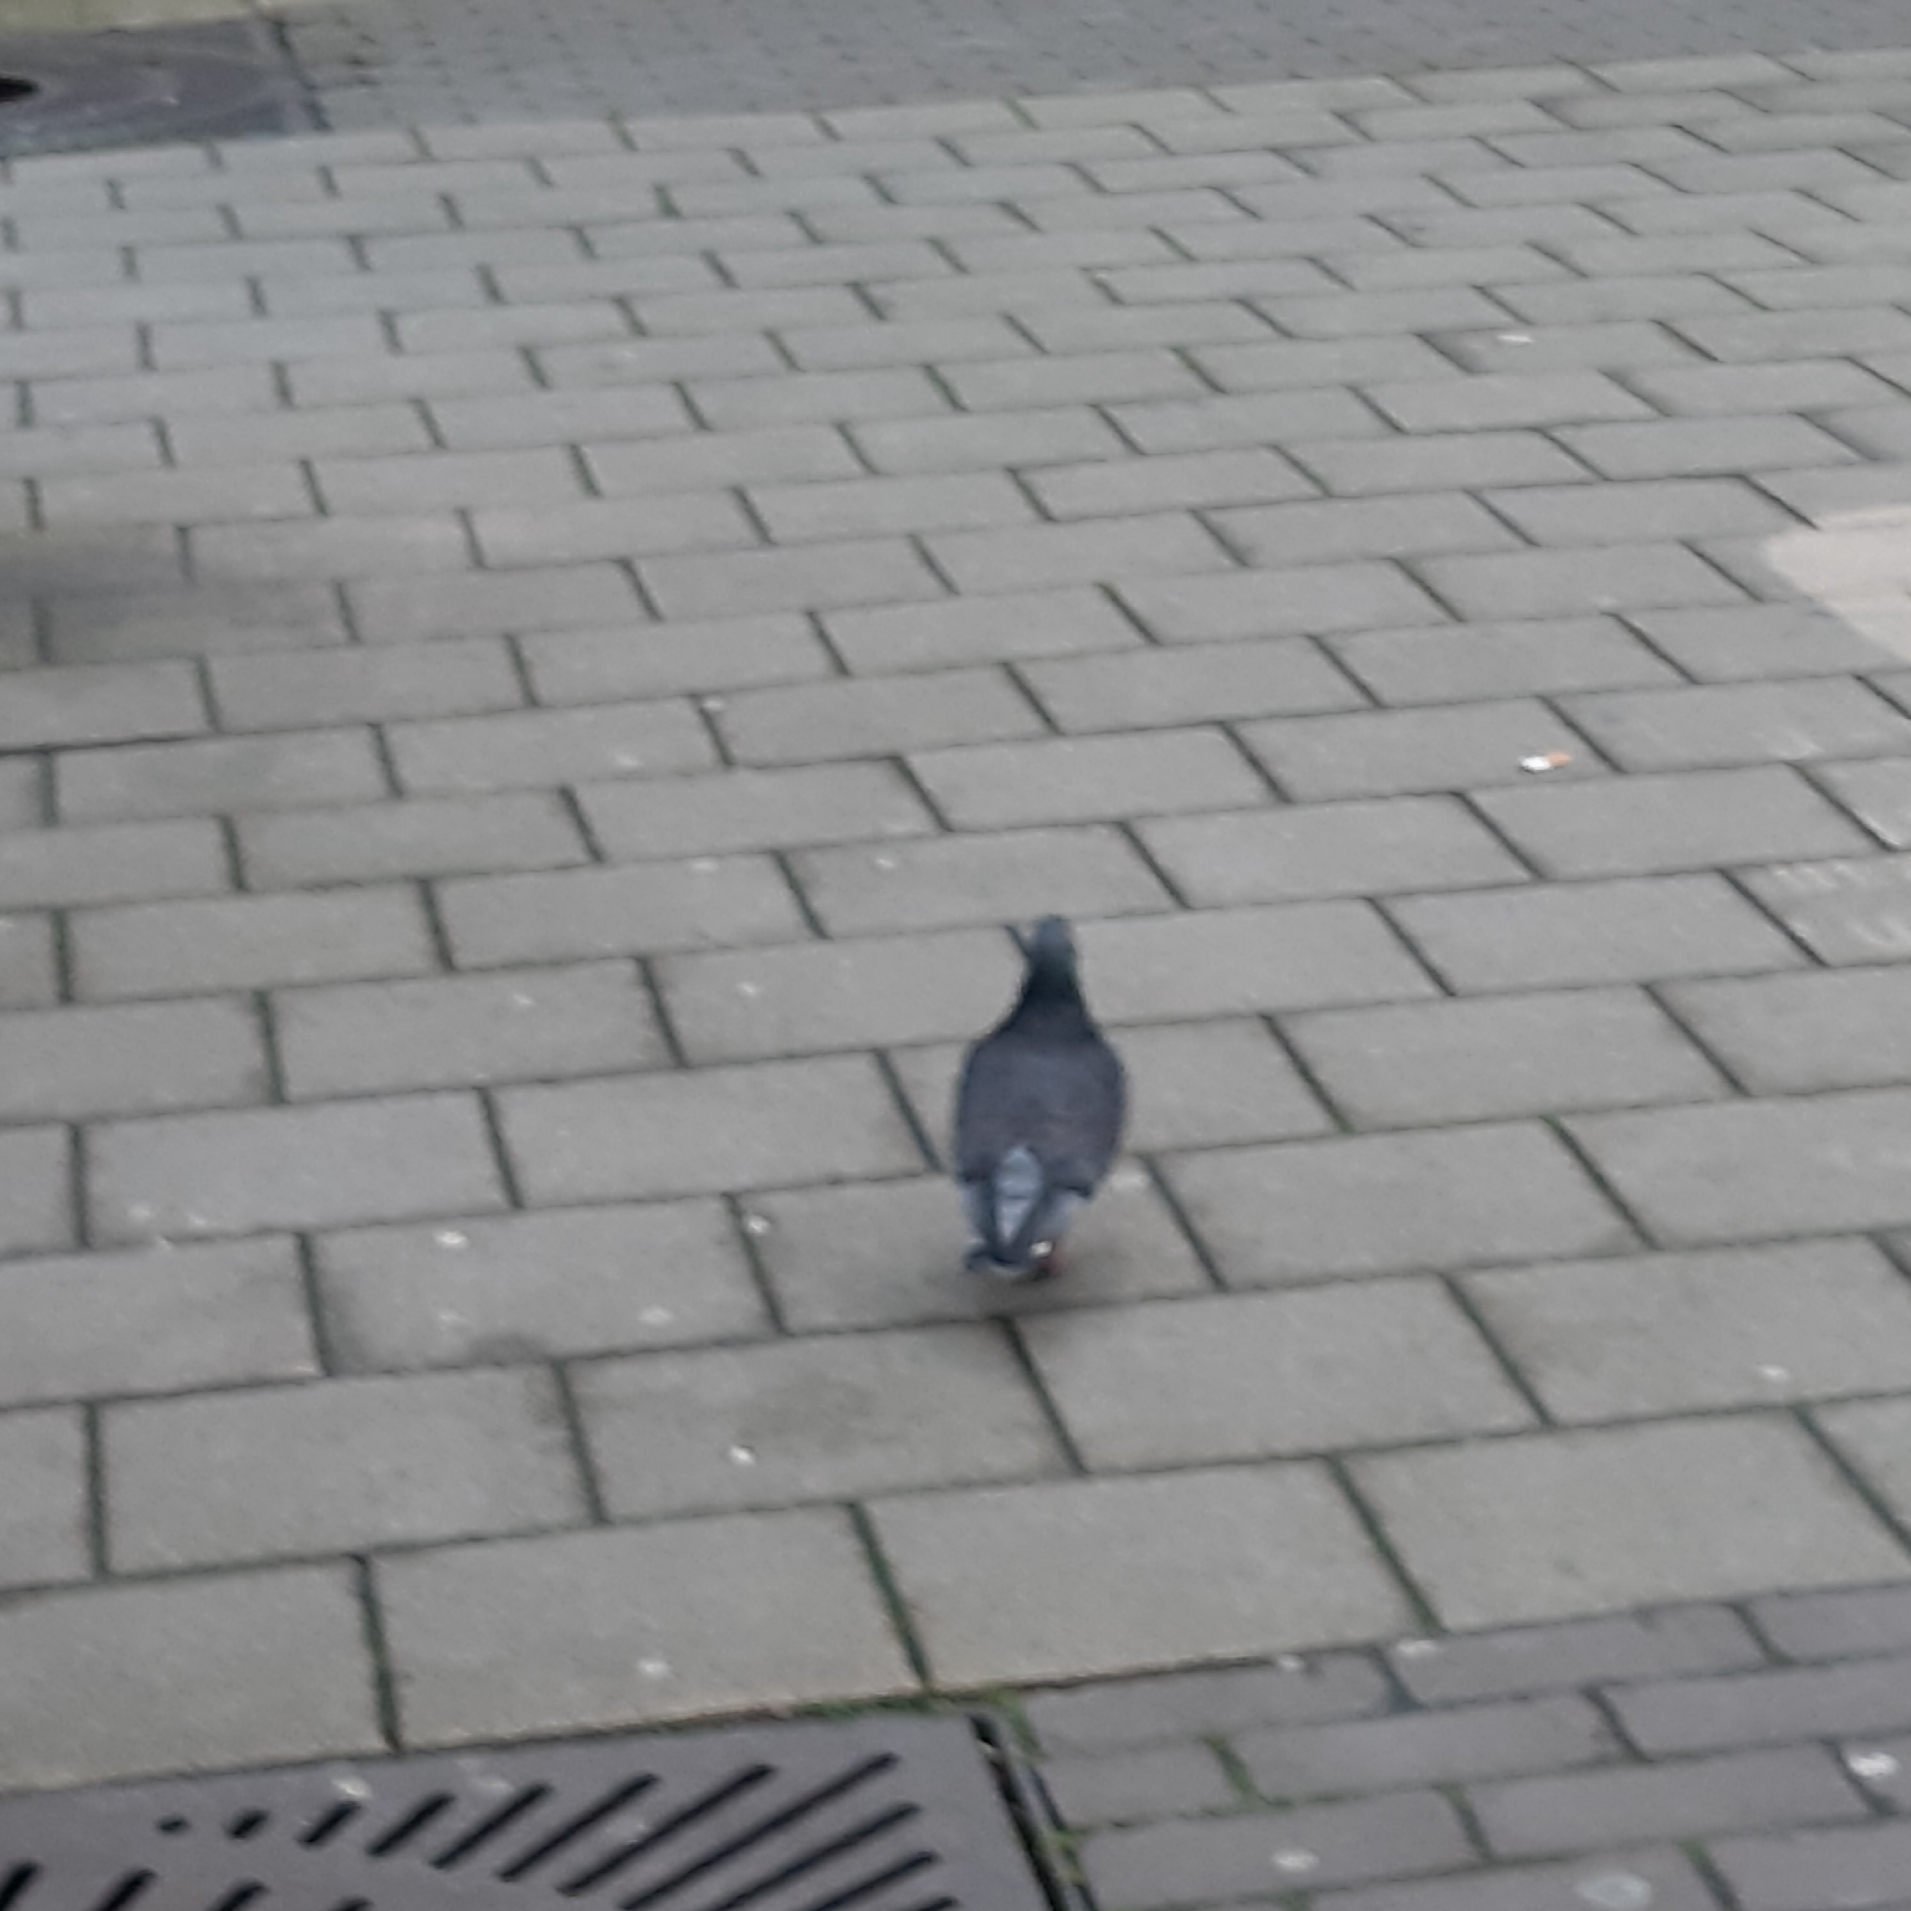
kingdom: Animalia
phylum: Chordata
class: Aves
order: Columbiformes
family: Columbidae
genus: Columba
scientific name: Columba livia
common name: Rock pigeon
